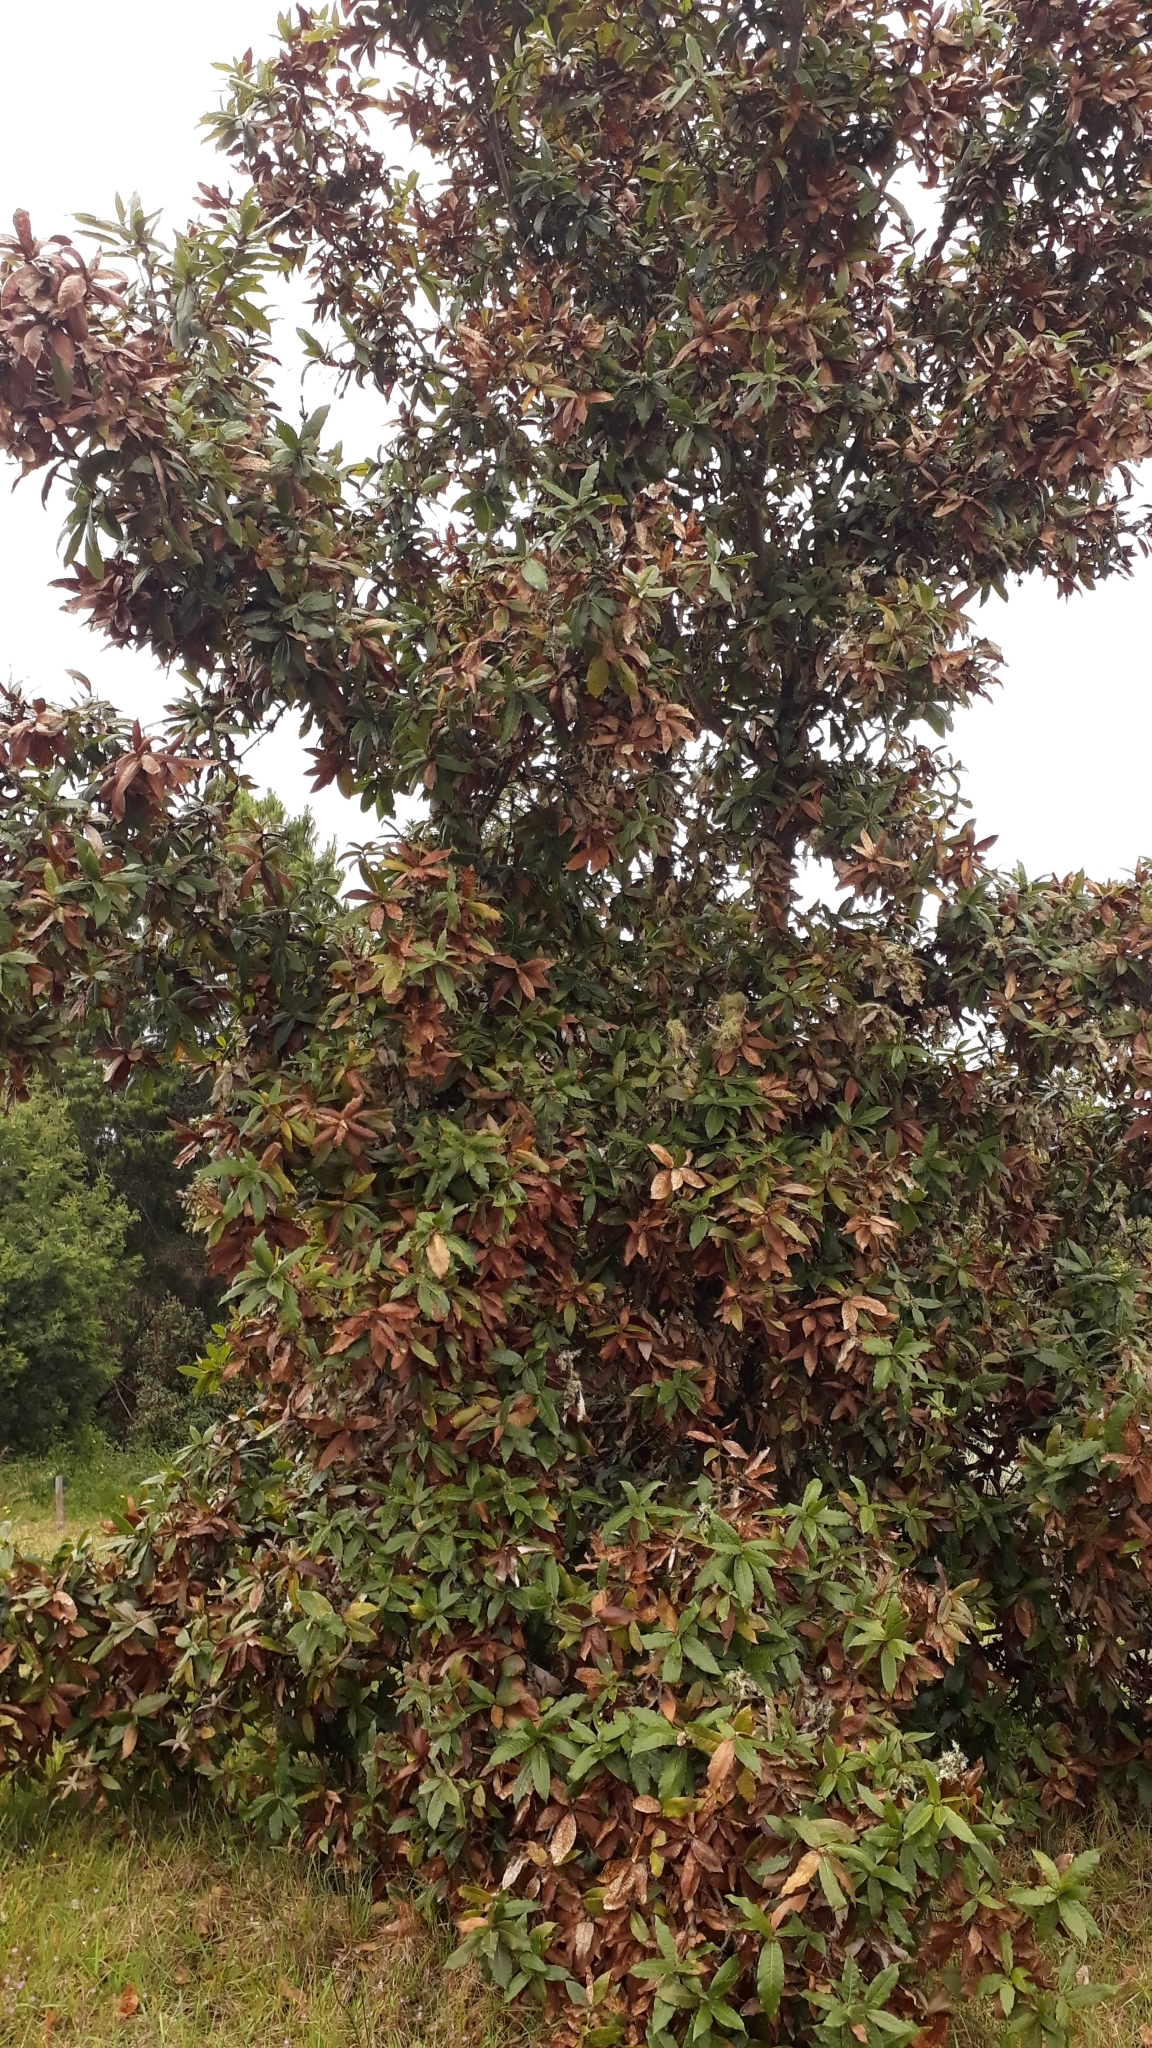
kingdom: Plantae
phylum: Tracheophyta
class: Magnoliopsida
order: Fagales
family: Fagaceae
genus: Quercus
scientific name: Quercus humboldtii
